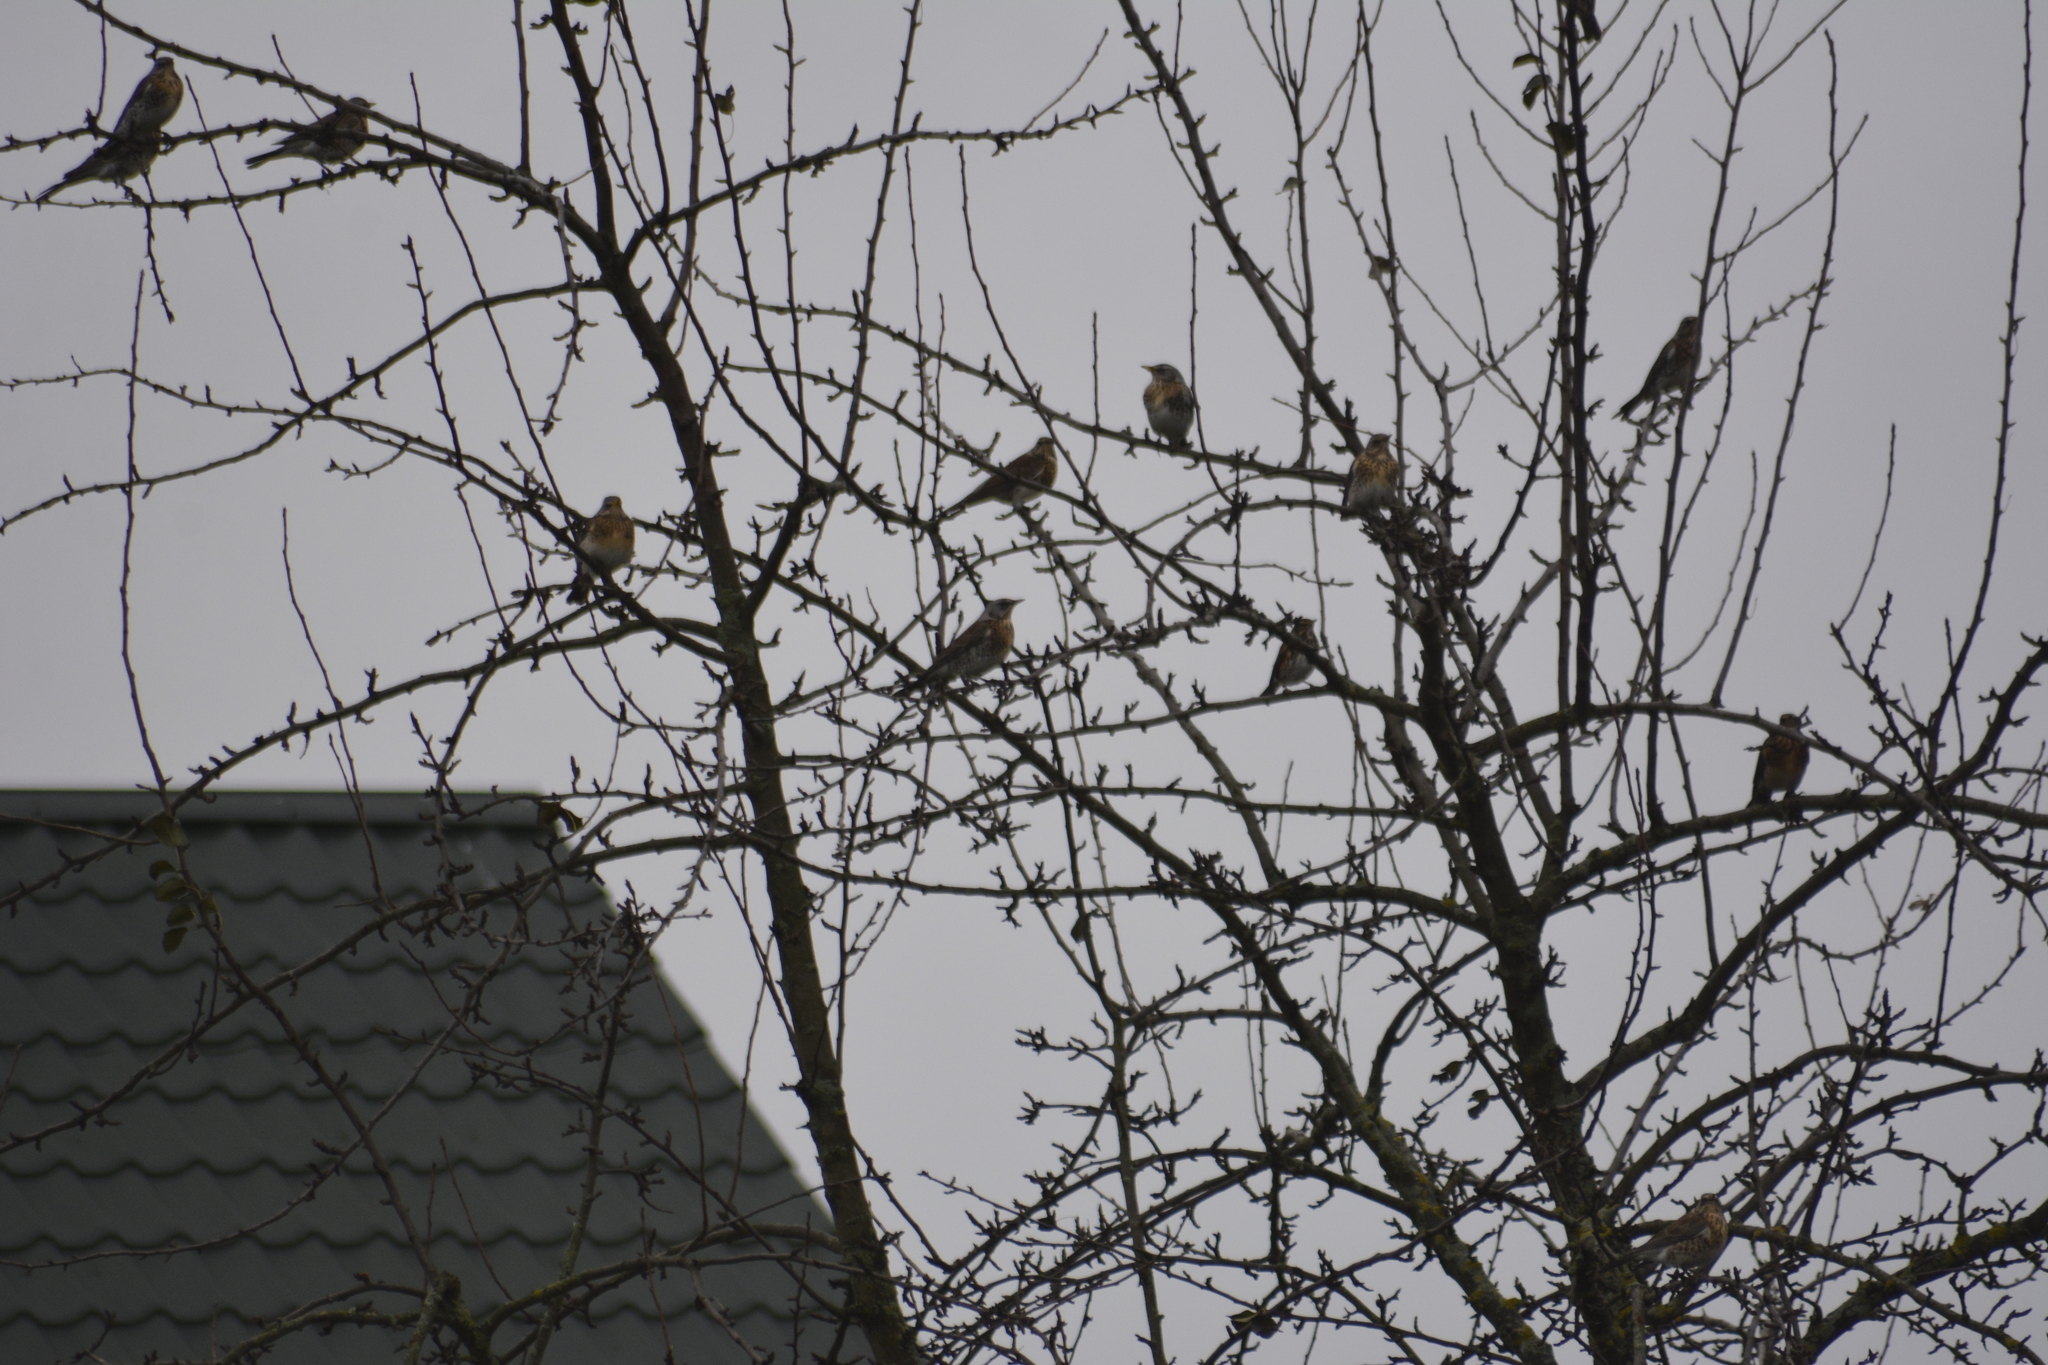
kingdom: Animalia
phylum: Chordata
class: Aves
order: Passeriformes
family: Turdidae
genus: Turdus
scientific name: Turdus pilaris
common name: Fieldfare
